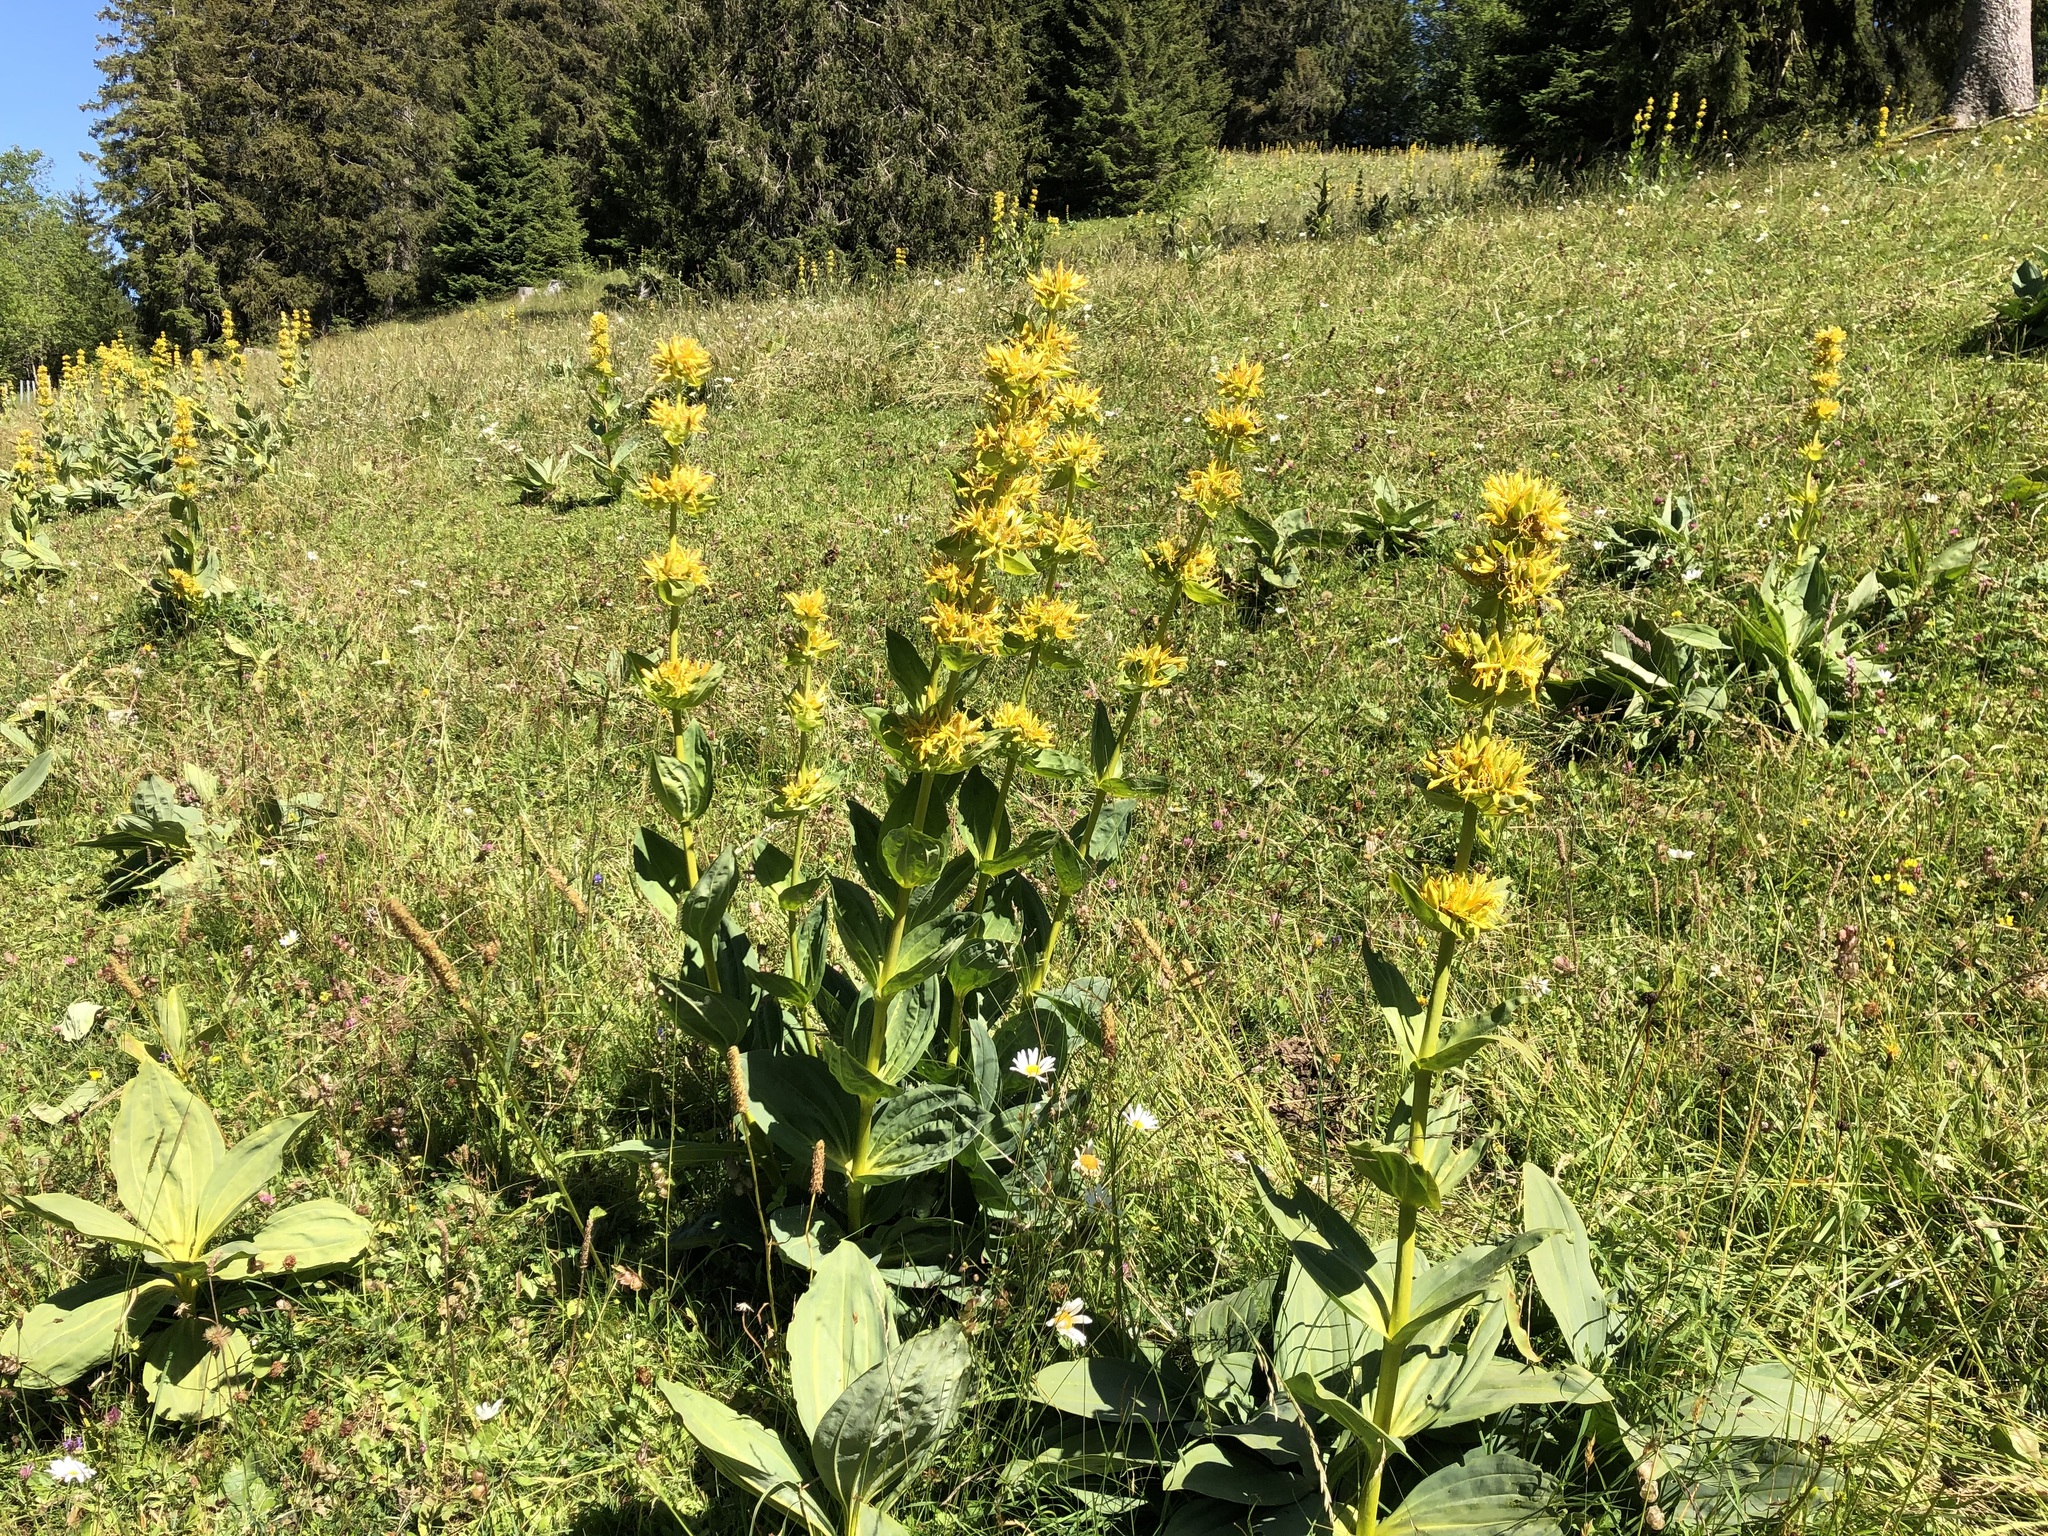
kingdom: Plantae
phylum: Tracheophyta
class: Magnoliopsida
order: Gentianales
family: Gentianaceae
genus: Gentiana
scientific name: Gentiana lutea
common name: Great yellow gentian
